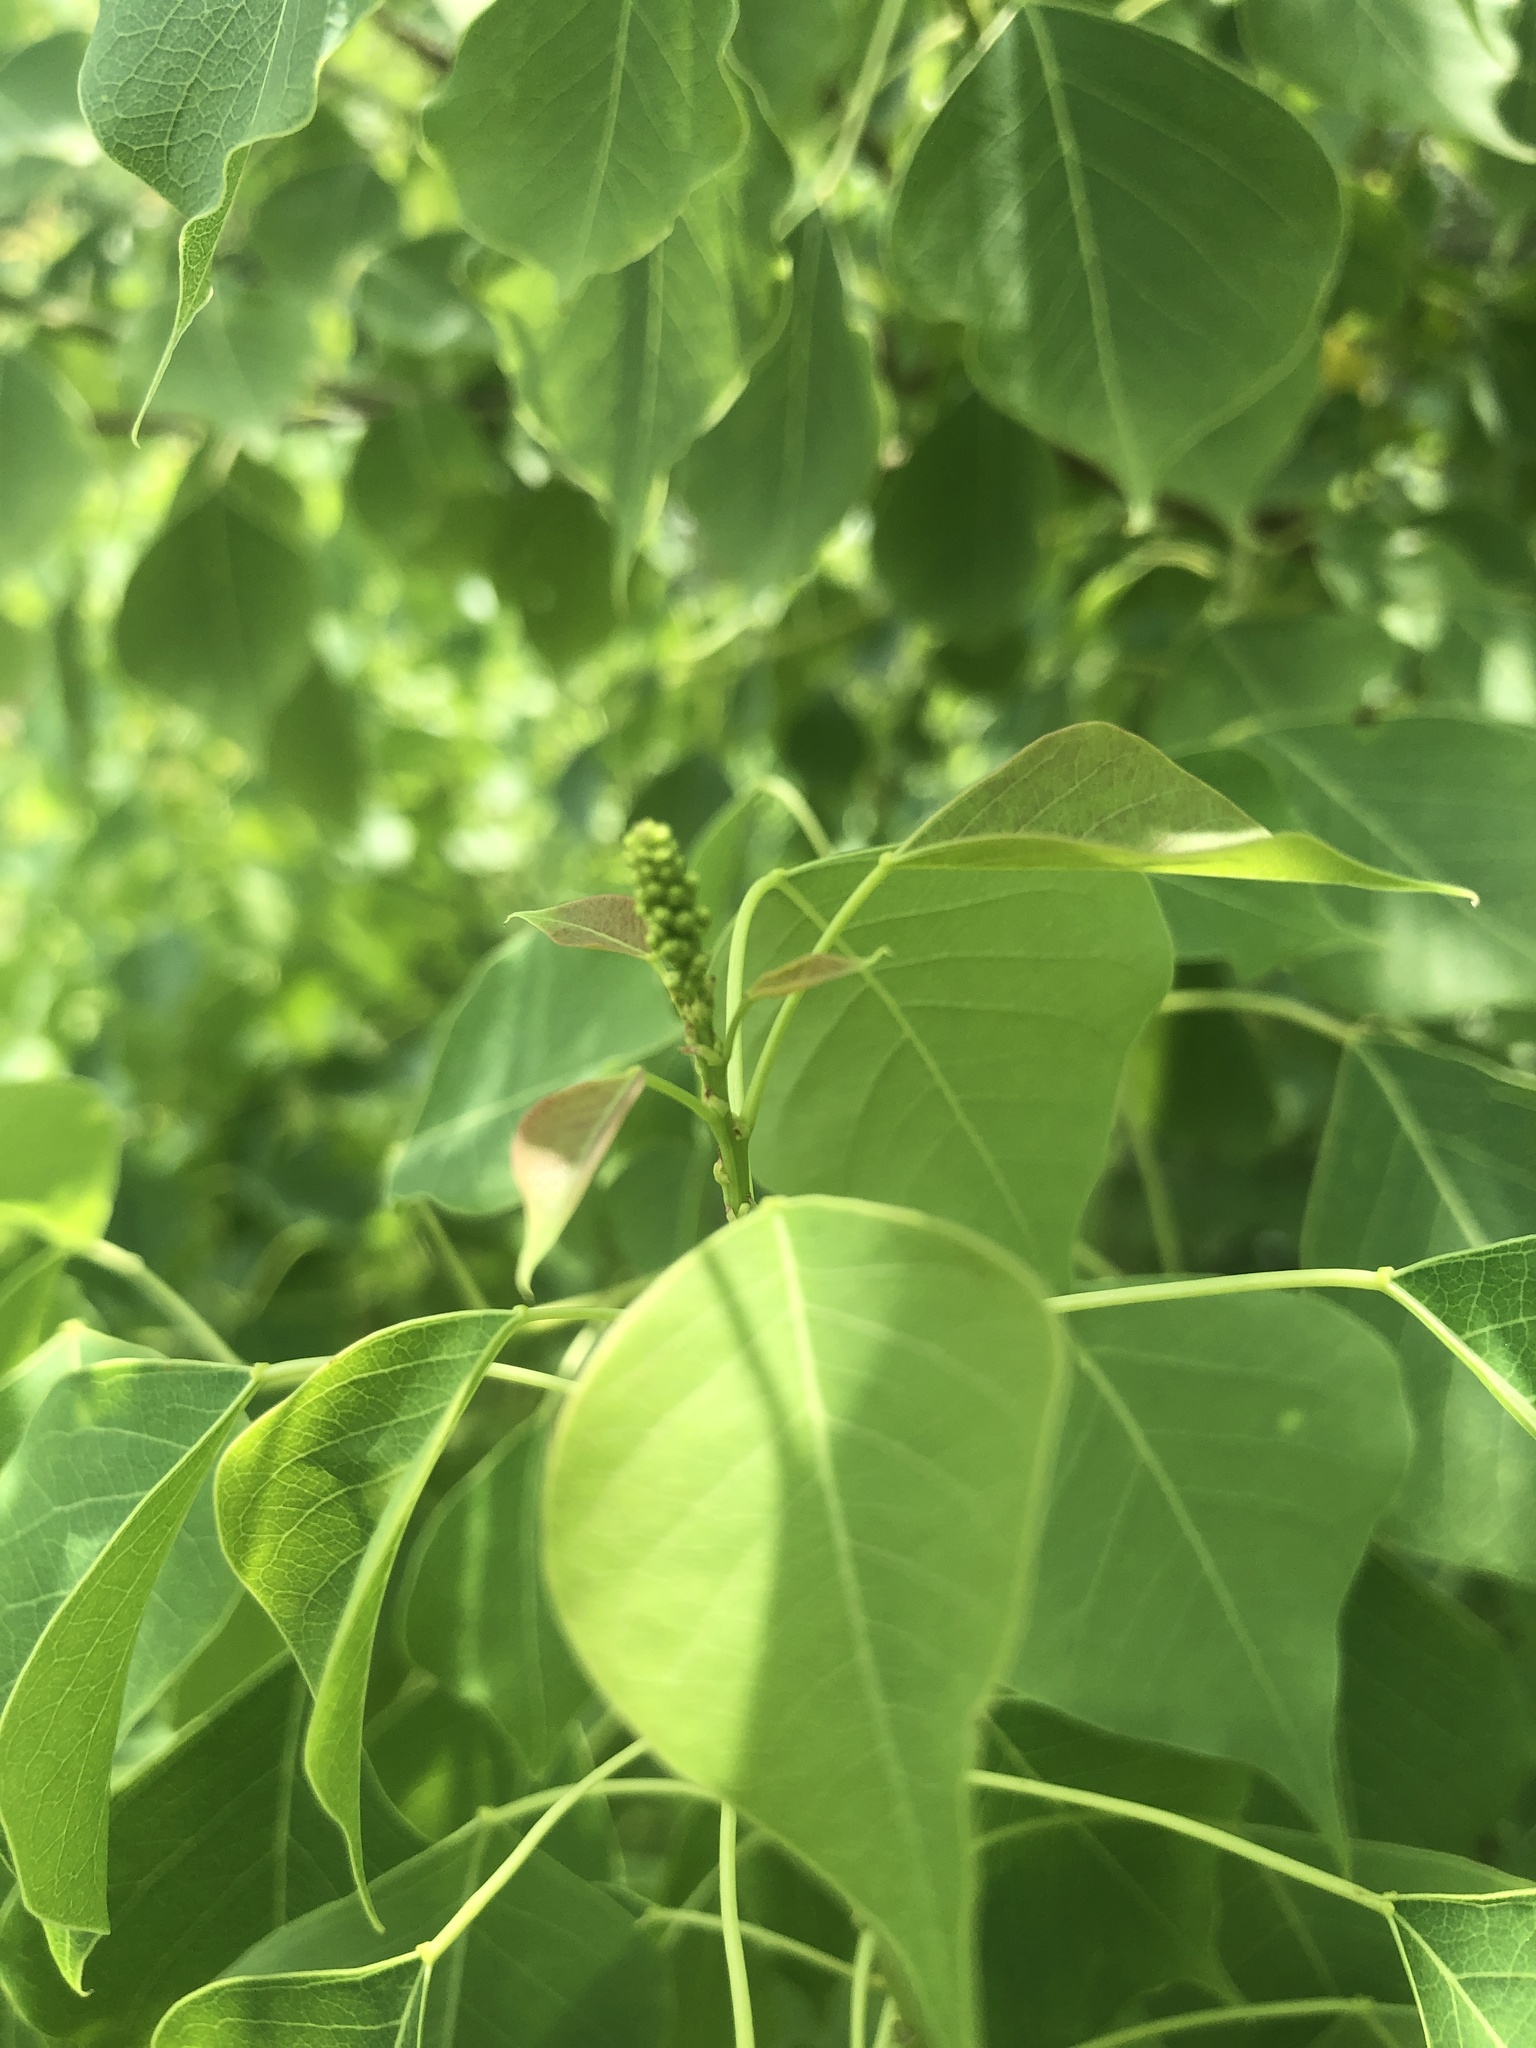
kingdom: Plantae
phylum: Tracheophyta
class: Magnoliopsida
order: Malpighiales
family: Euphorbiaceae
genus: Triadica
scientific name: Triadica sebifera
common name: Chinese tallow
